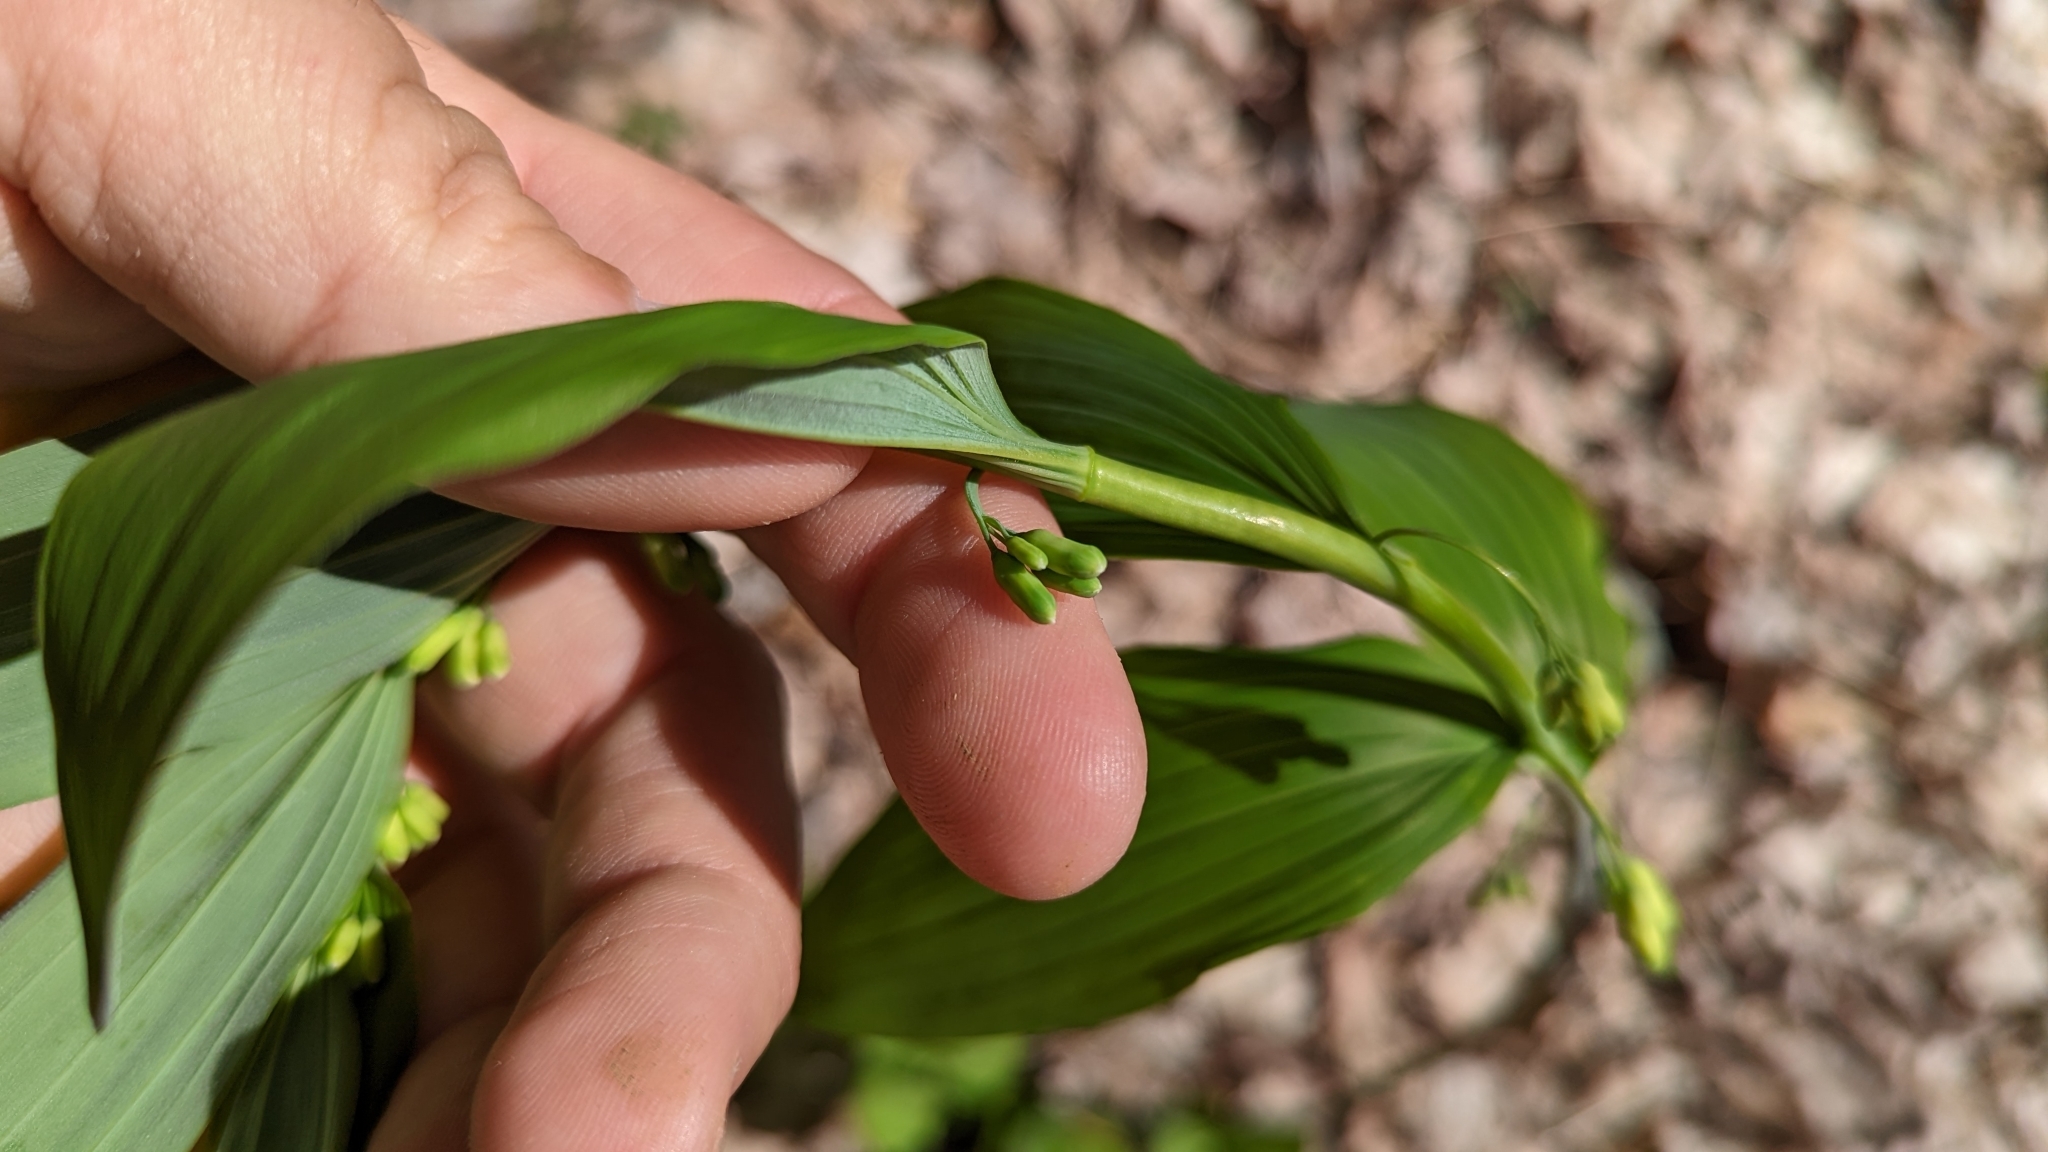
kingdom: Plantae
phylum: Tracheophyta
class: Liliopsida
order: Asparagales
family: Asparagaceae
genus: Polygonatum
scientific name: Polygonatum pubescens
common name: Downy solomon's seal
